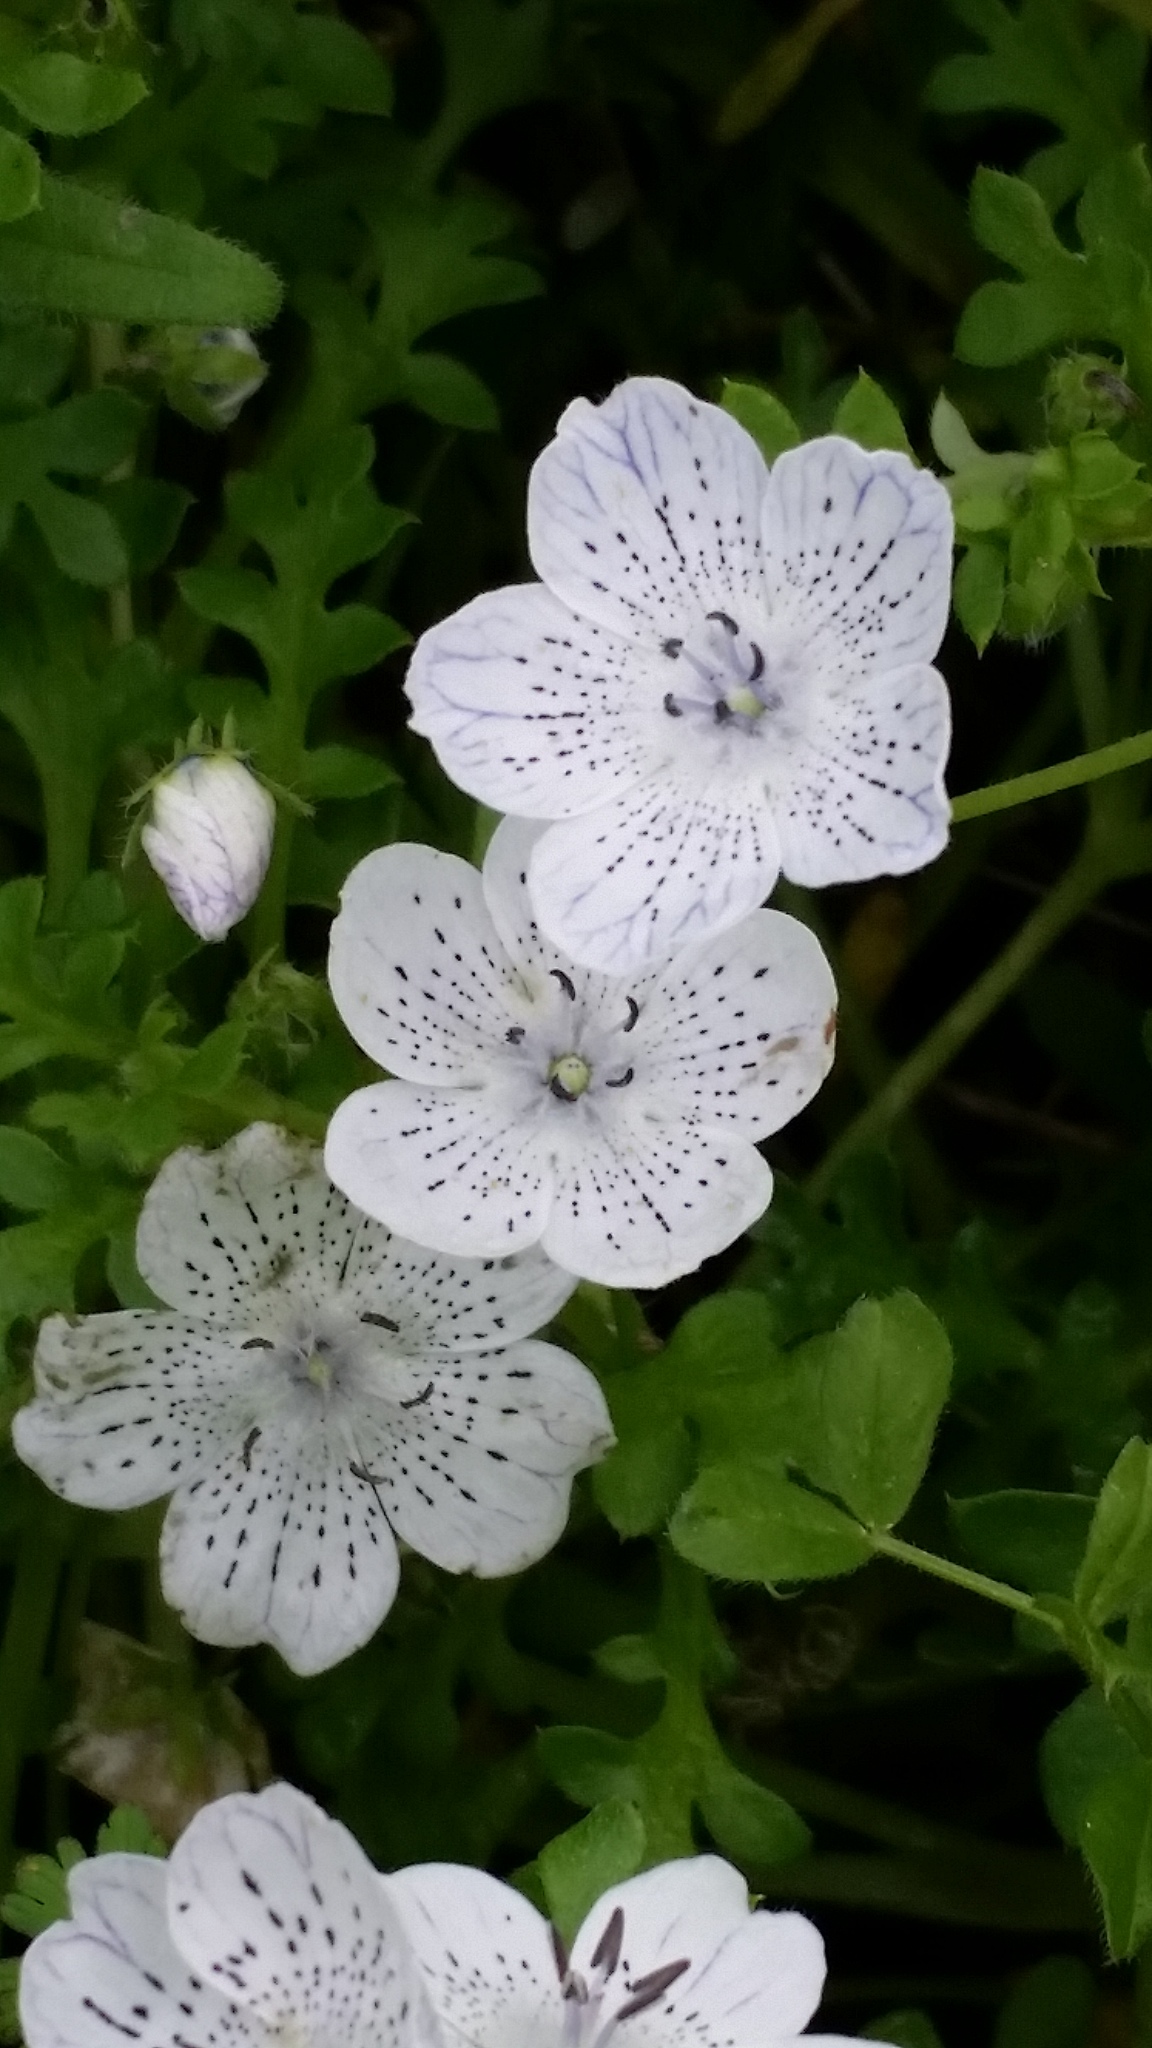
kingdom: Plantae
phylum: Tracheophyta
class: Magnoliopsida
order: Boraginales
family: Hydrophyllaceae
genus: Nemophila
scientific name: Nemophila menziesii
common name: Baby's-blue-eyes
